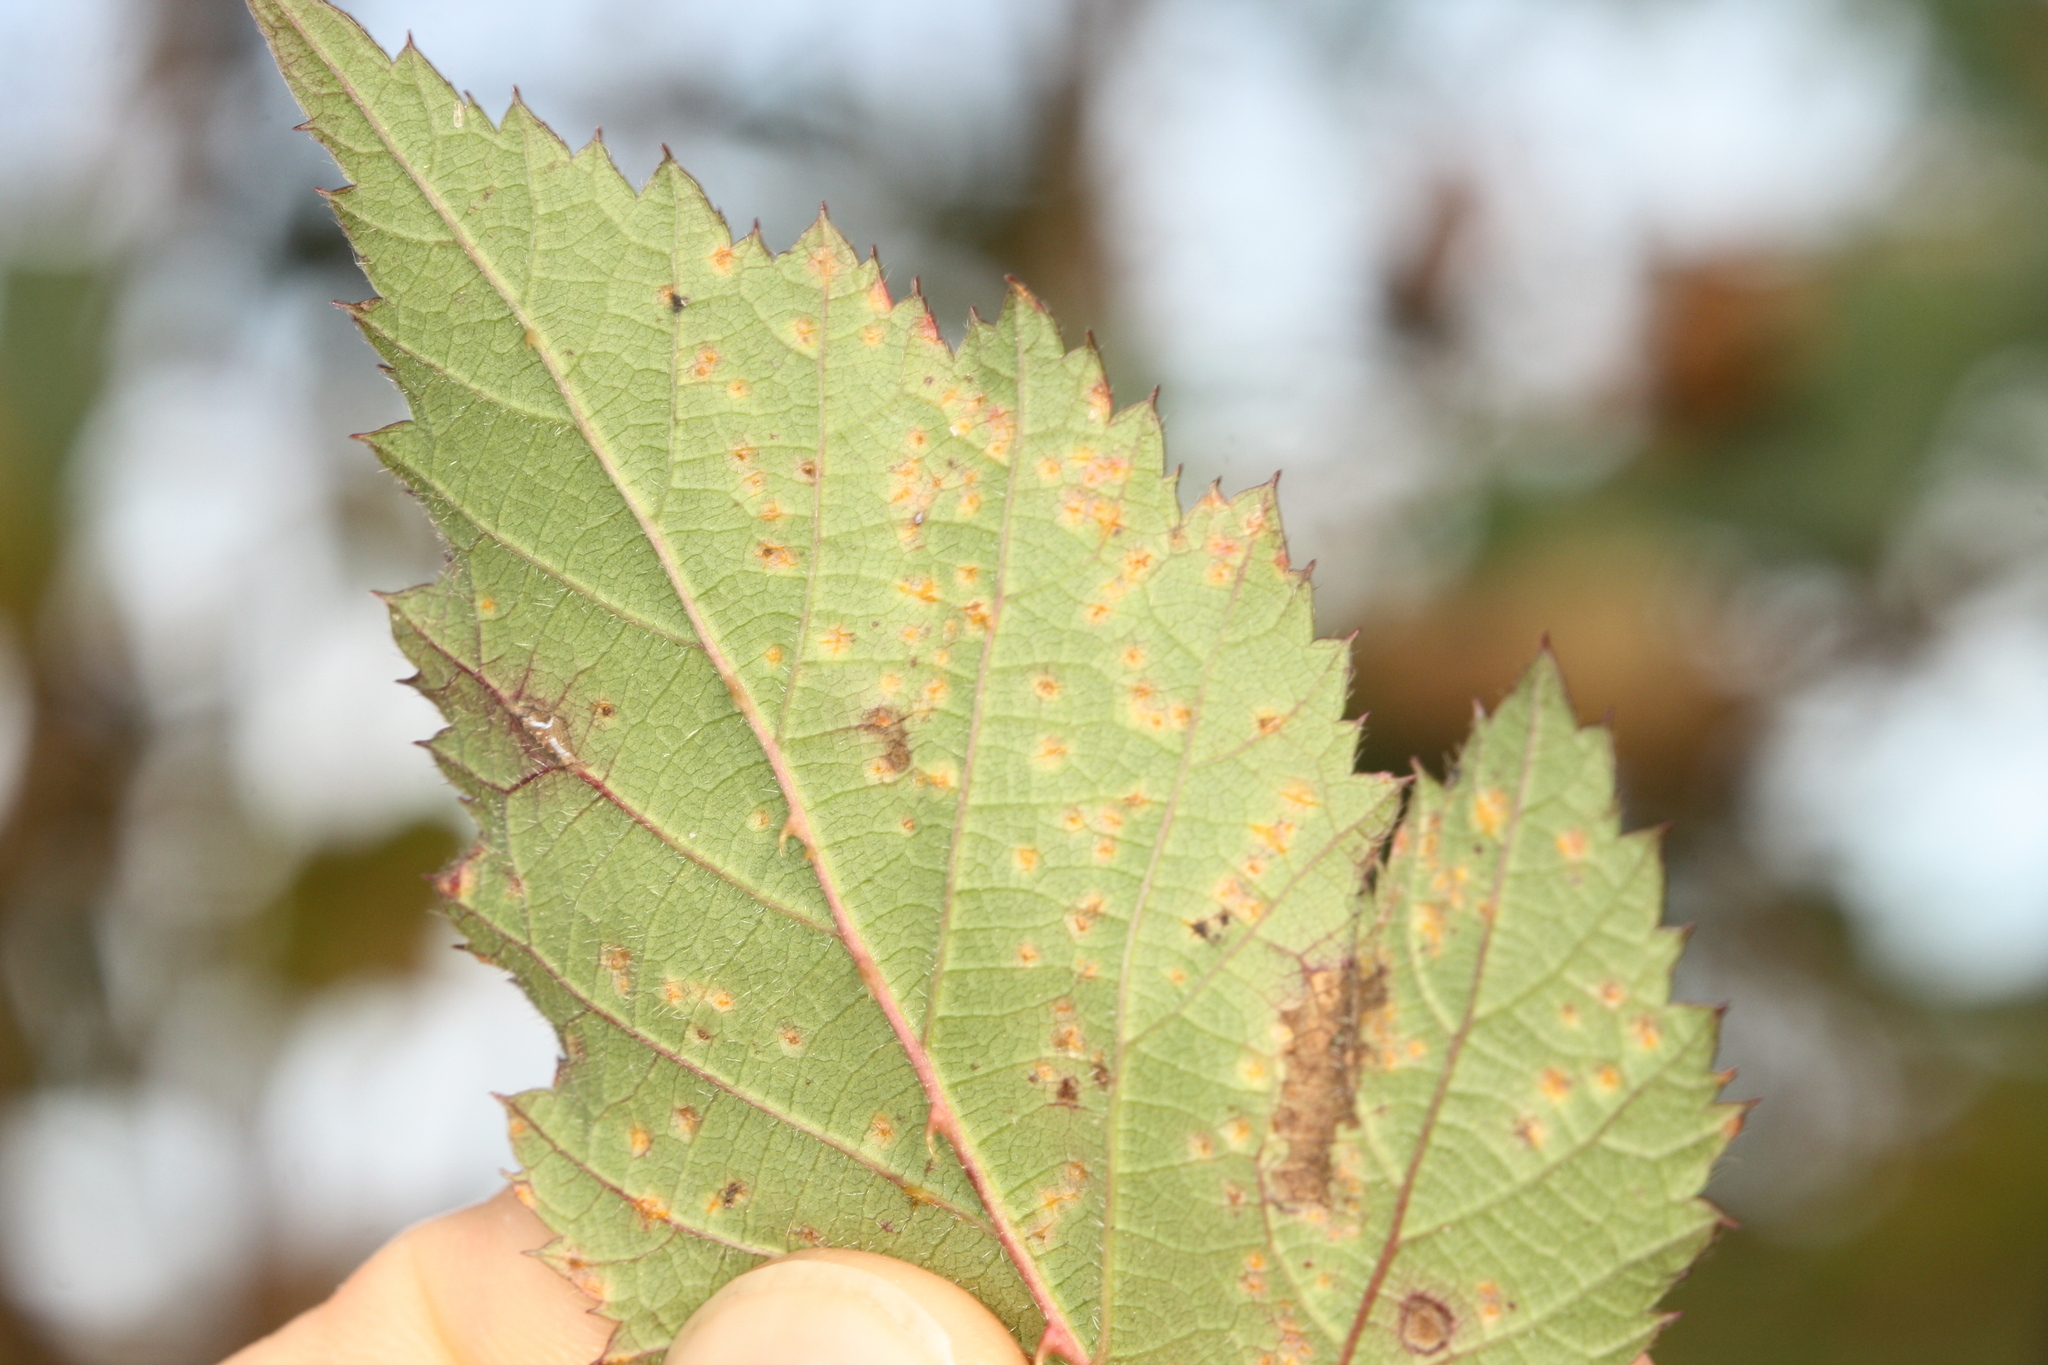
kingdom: Fungi
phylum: Basidiomycota
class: Pucciniomycetes
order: Pucciniales
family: Phragmidiaceae
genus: Phragmidium
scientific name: Phragmidium violaceum
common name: Violet bramble rust
